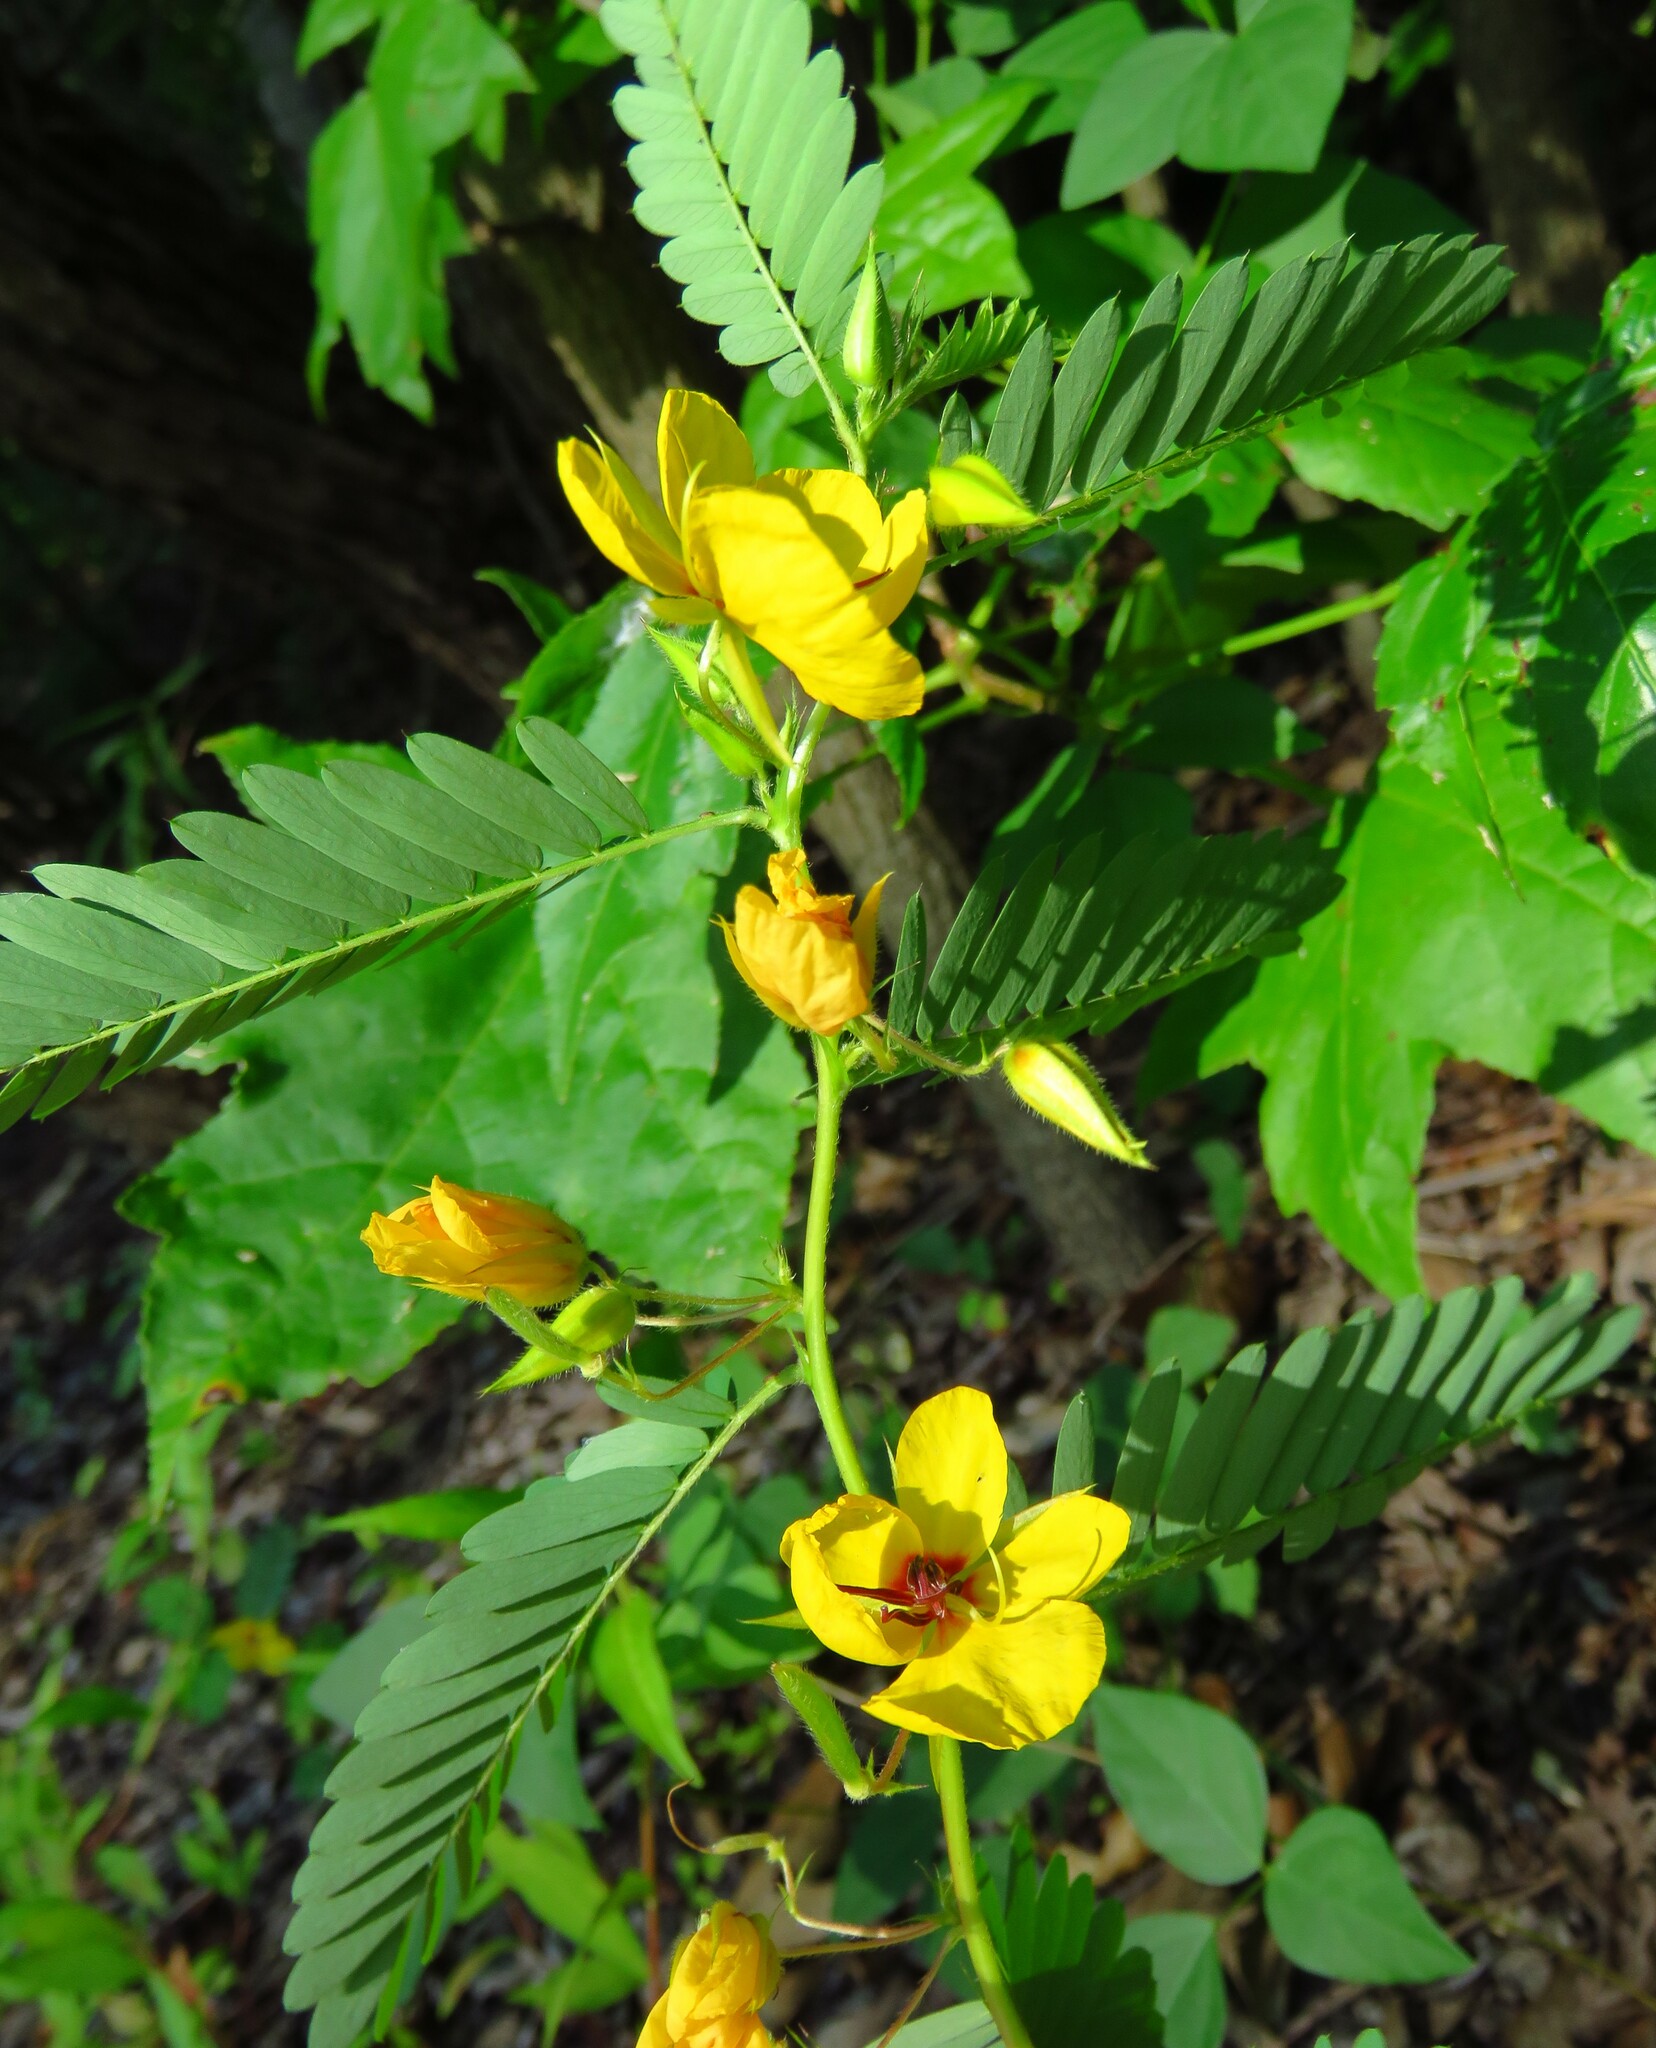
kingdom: Plantae
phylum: Tracheophyta
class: Magnoliopsida
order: Fabales
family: Fabaceae
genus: Chamaecrista
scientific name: Chamaecrista fasciculata
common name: Golden cassia
